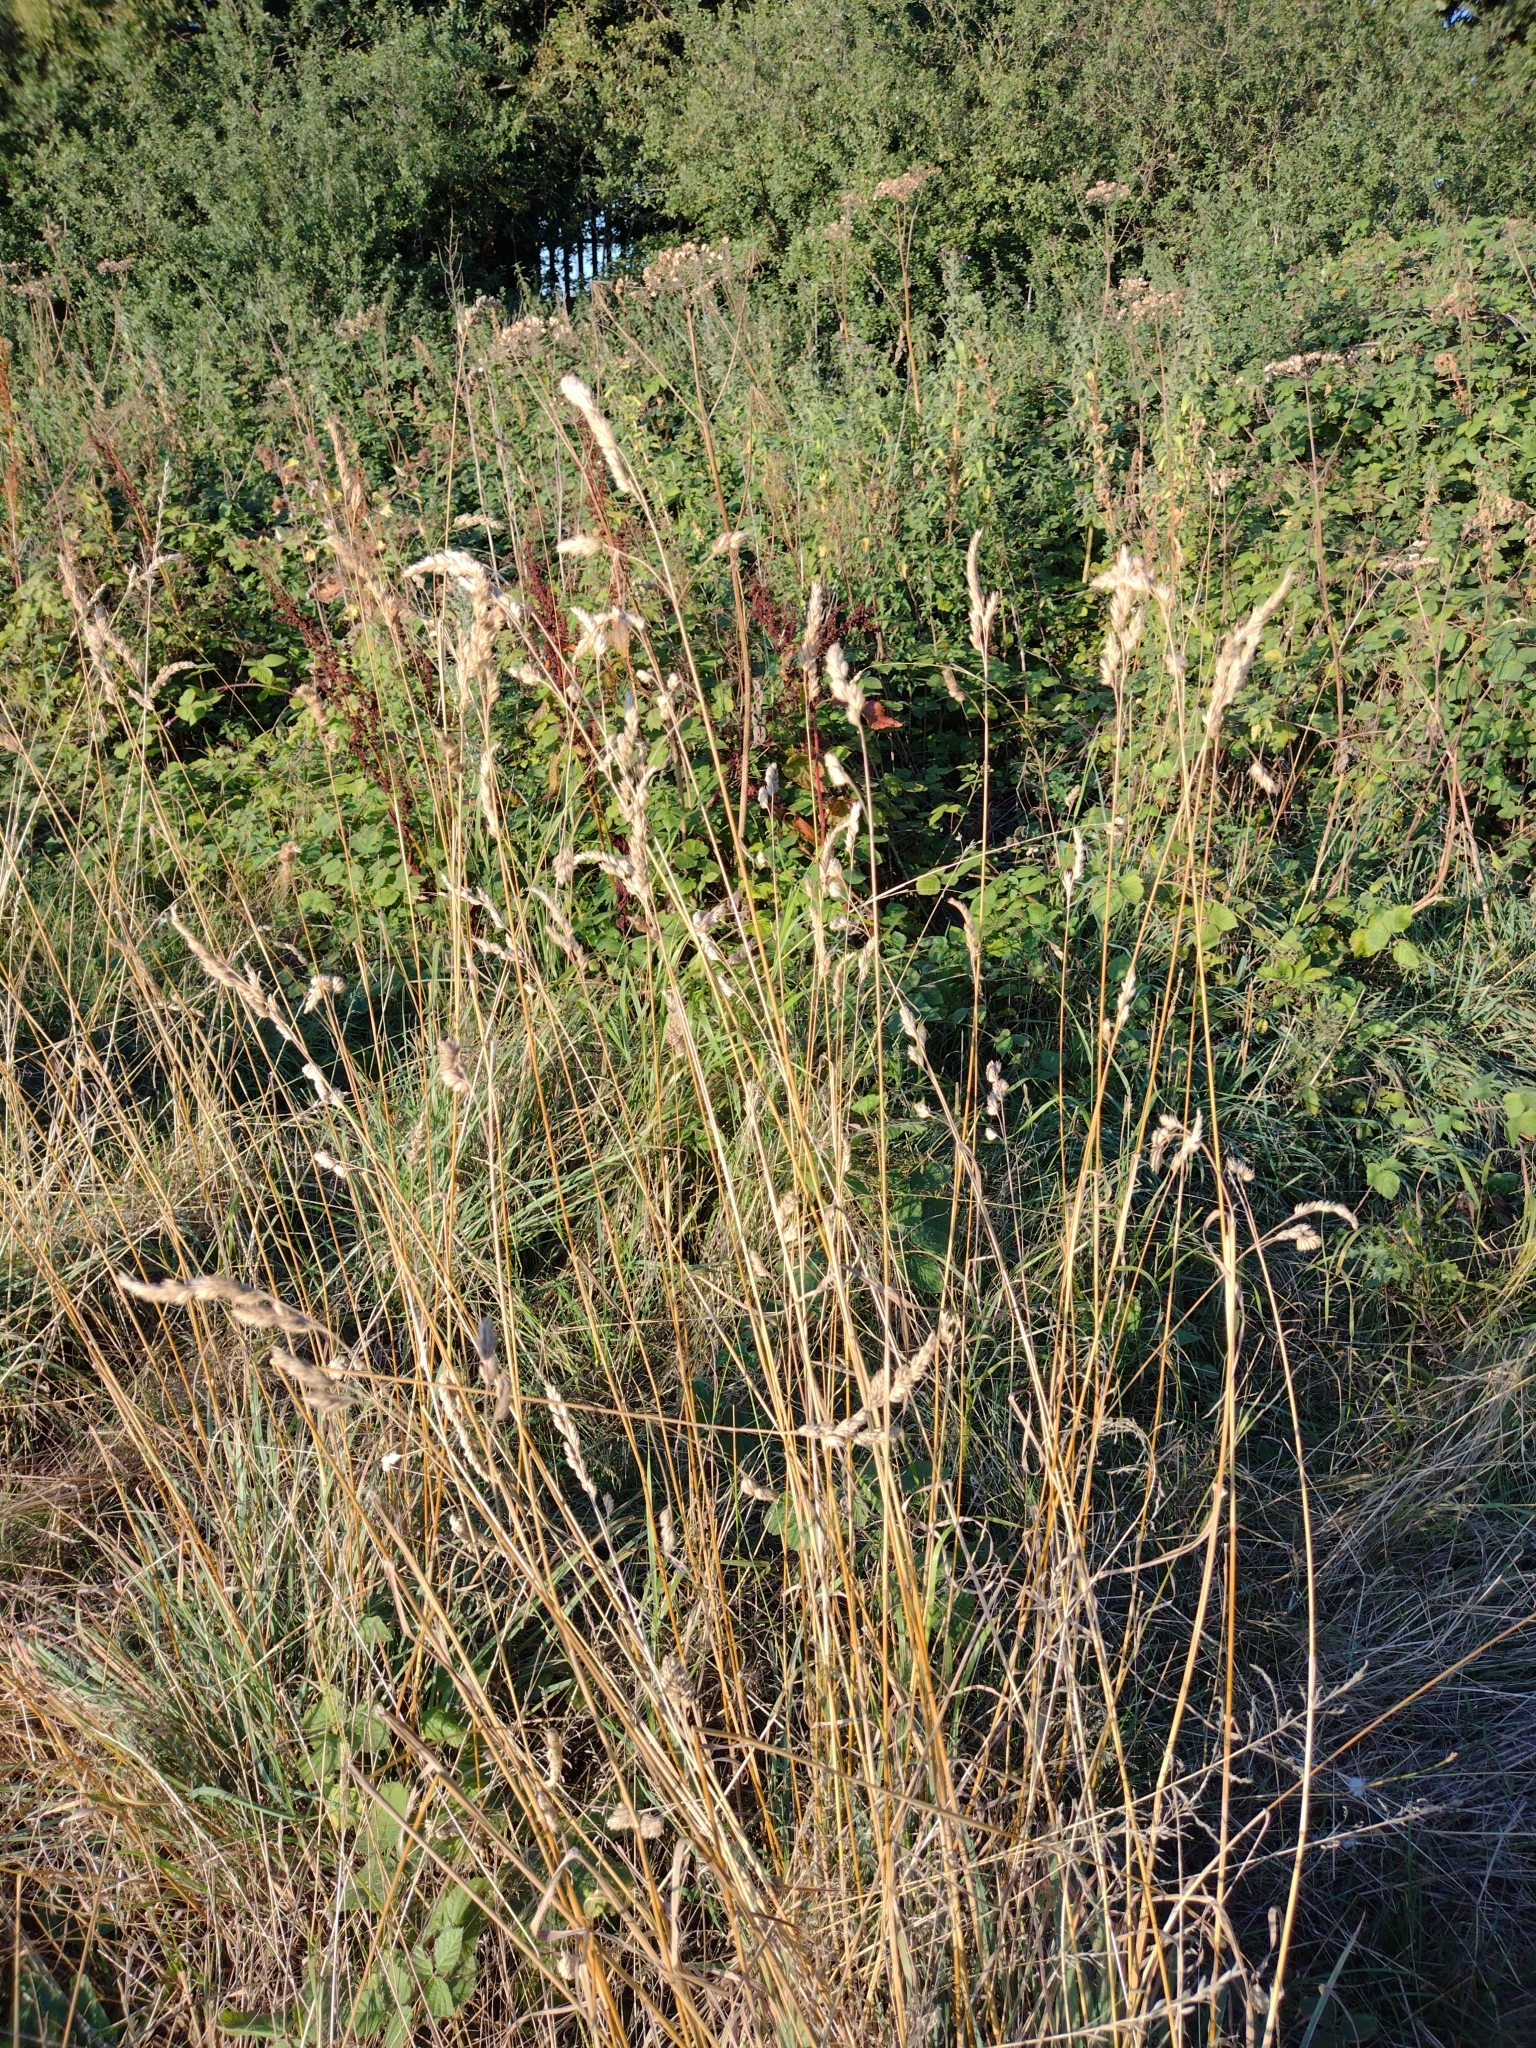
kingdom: Plantae
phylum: Tracheophyta
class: Liliopsida
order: Poales
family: Poaceae
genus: Dactylis
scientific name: Dactylis glomerata
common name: Orchardgrass
